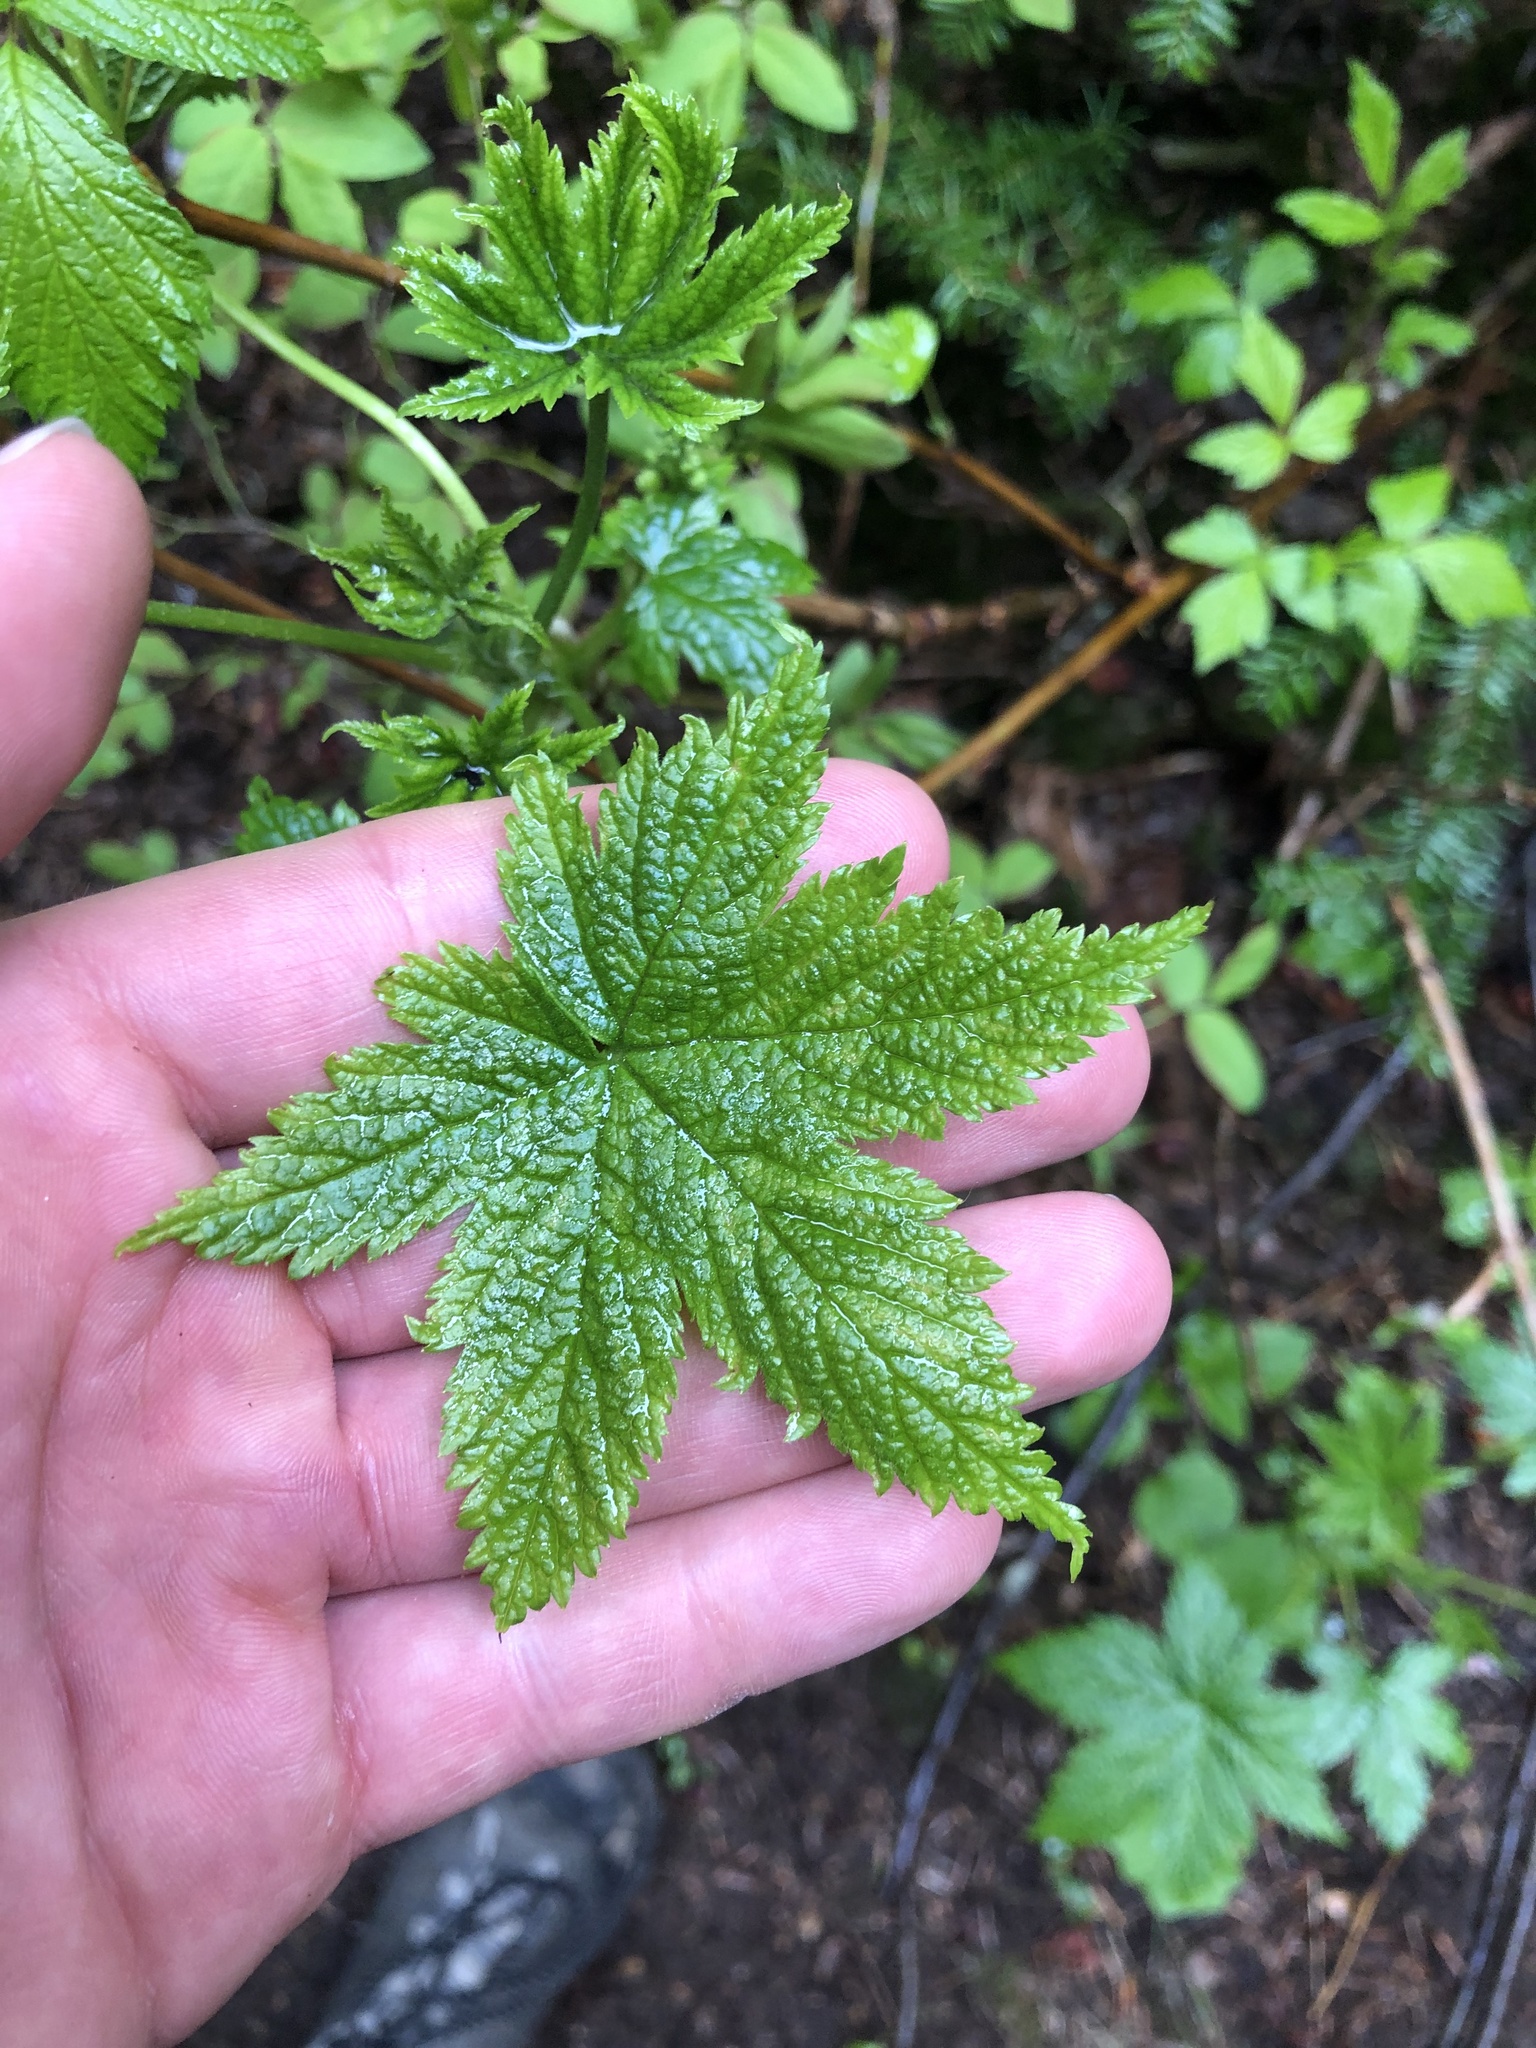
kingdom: Plantae
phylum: Tracheophyta
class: Magnoliopsida
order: Saxifragales
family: Grossulariaceae
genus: Ribes
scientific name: Ribes bracteosum
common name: California black currant
